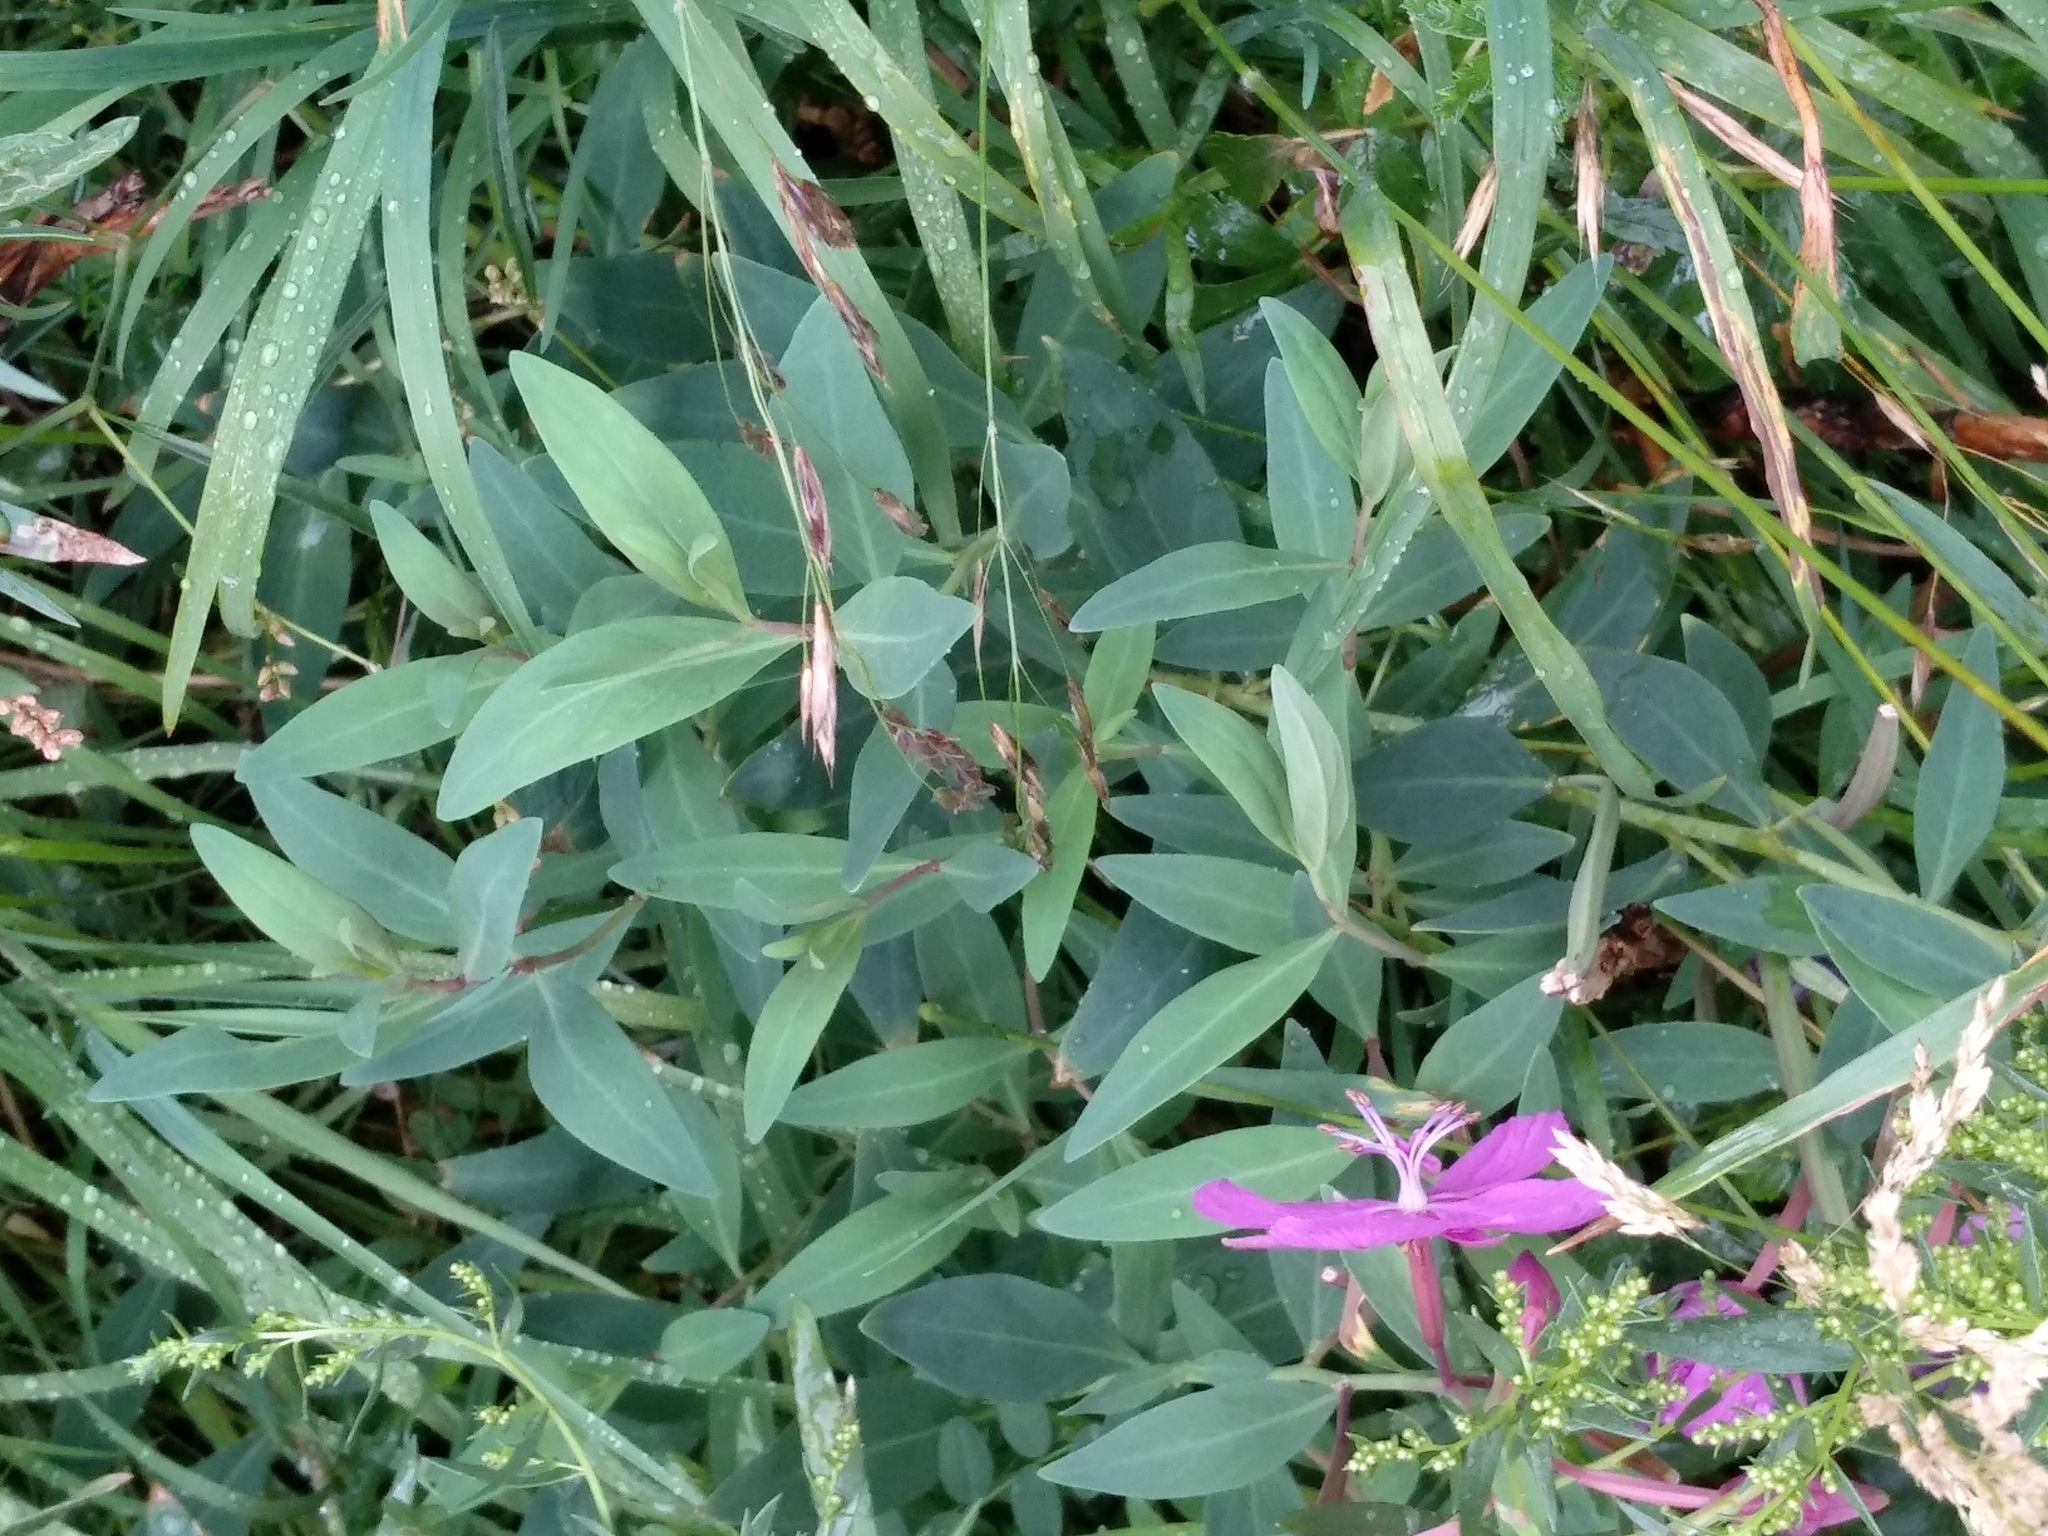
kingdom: Plantae
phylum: Tracheophyta
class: Magnoliopsida
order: Myrtales
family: Onagraceae
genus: Chamaenerion
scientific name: Chamaenerion latifolium
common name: Dwarf fireweed
